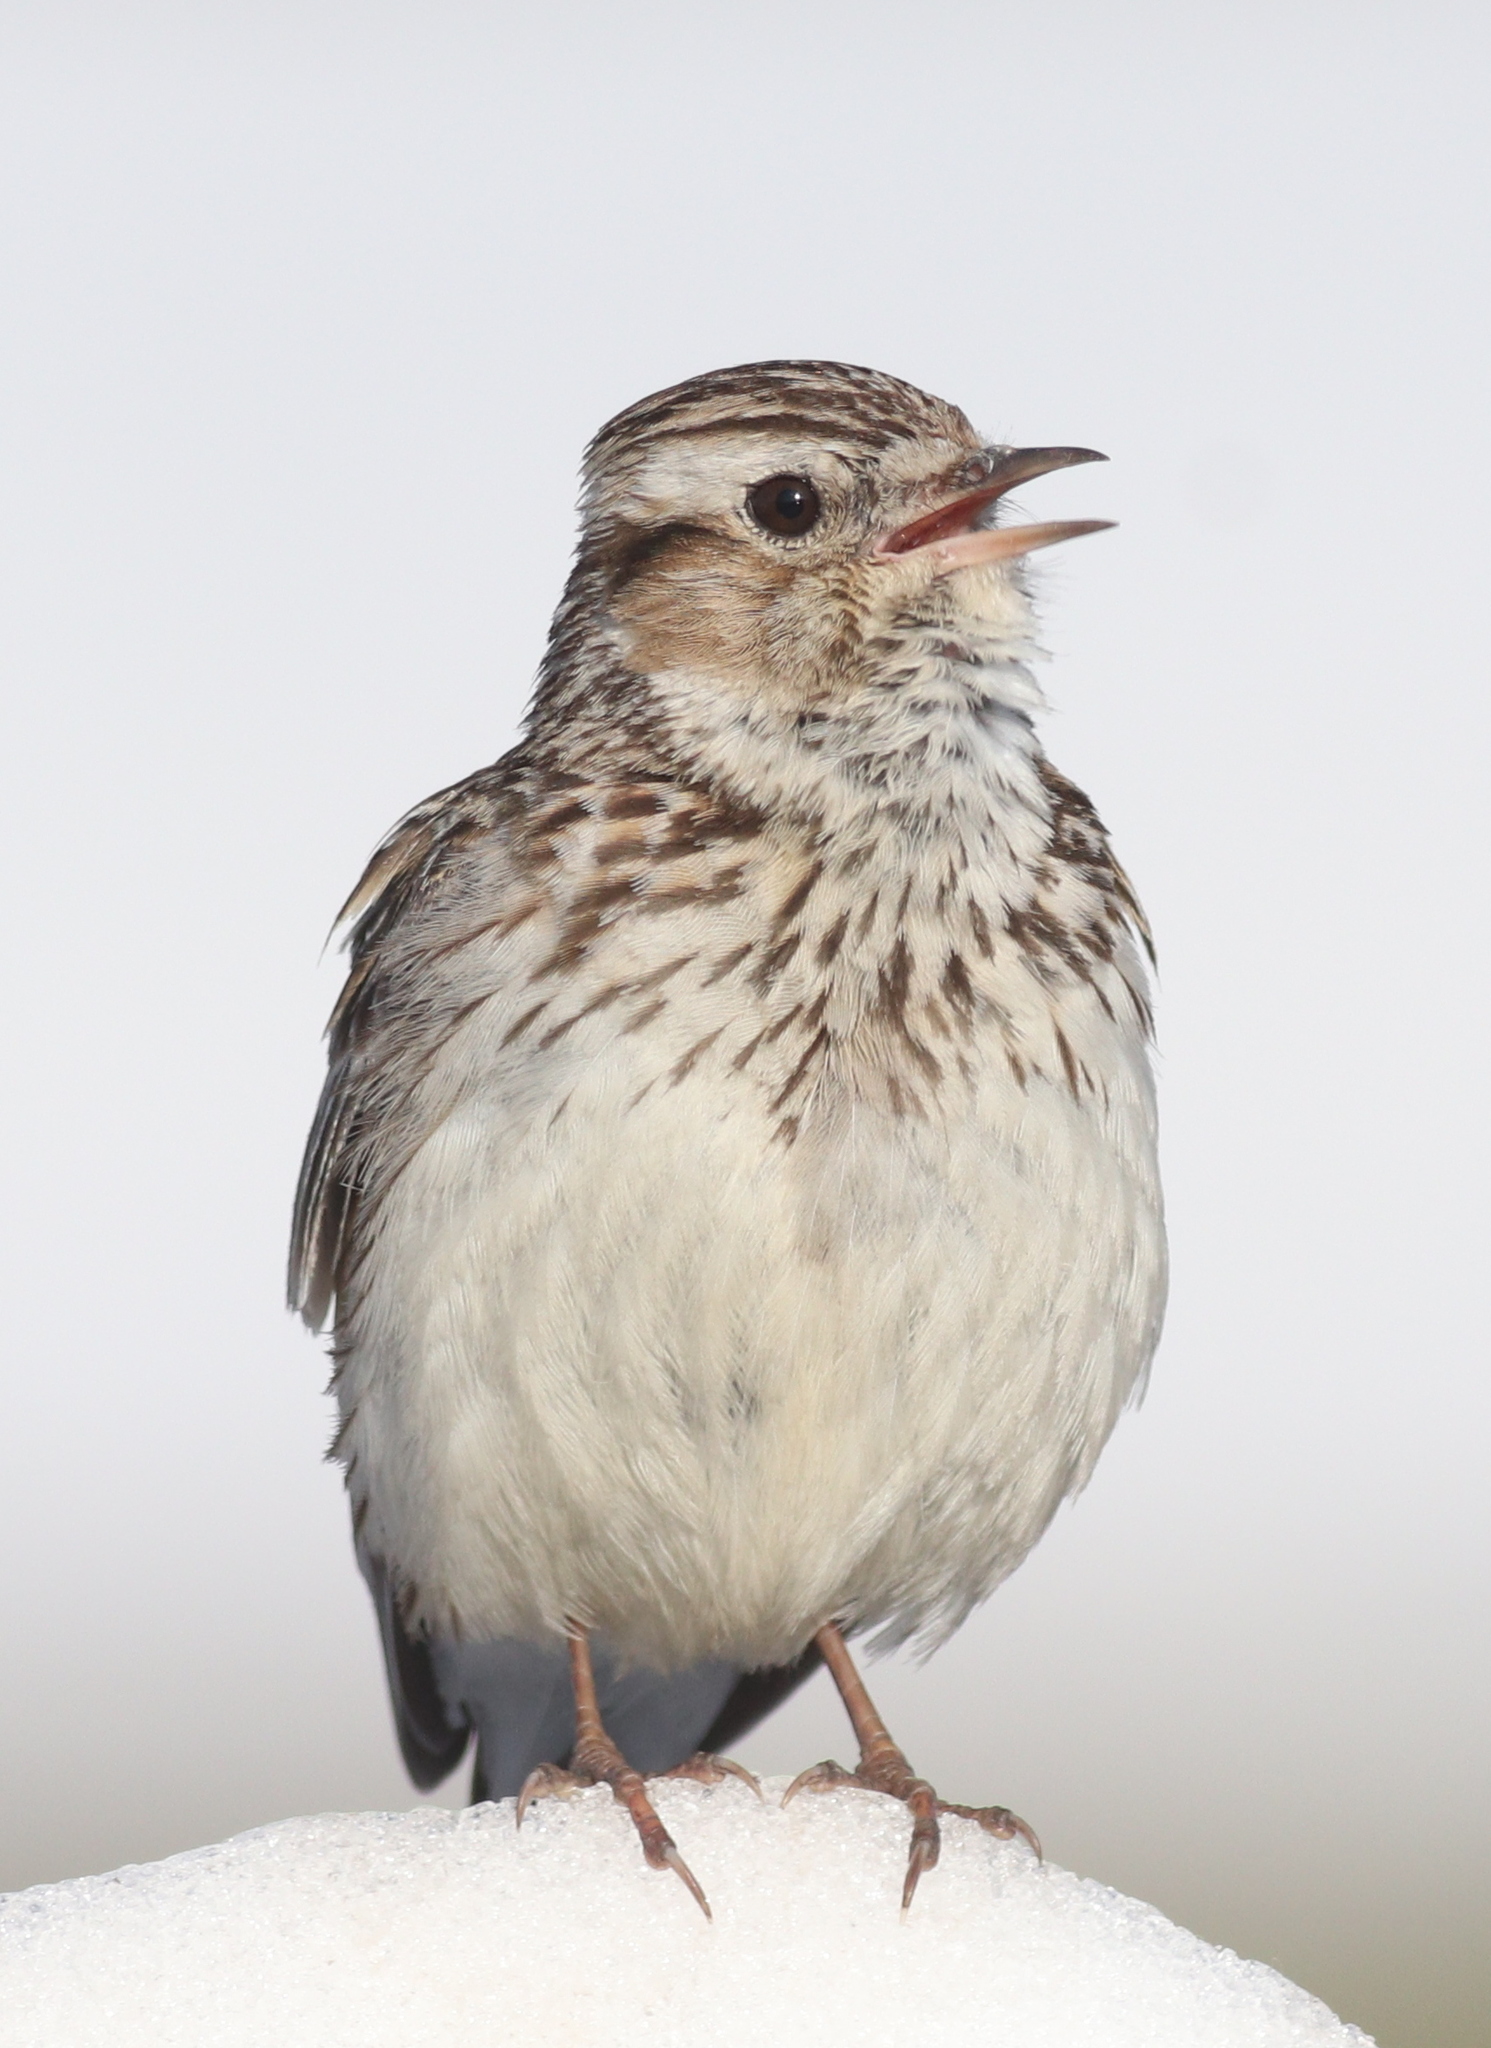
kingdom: Animalia
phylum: Chordata
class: Aves
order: Passeriformes
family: Alaudidae
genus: Lullula
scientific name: Lullula arborea
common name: Woodlark
